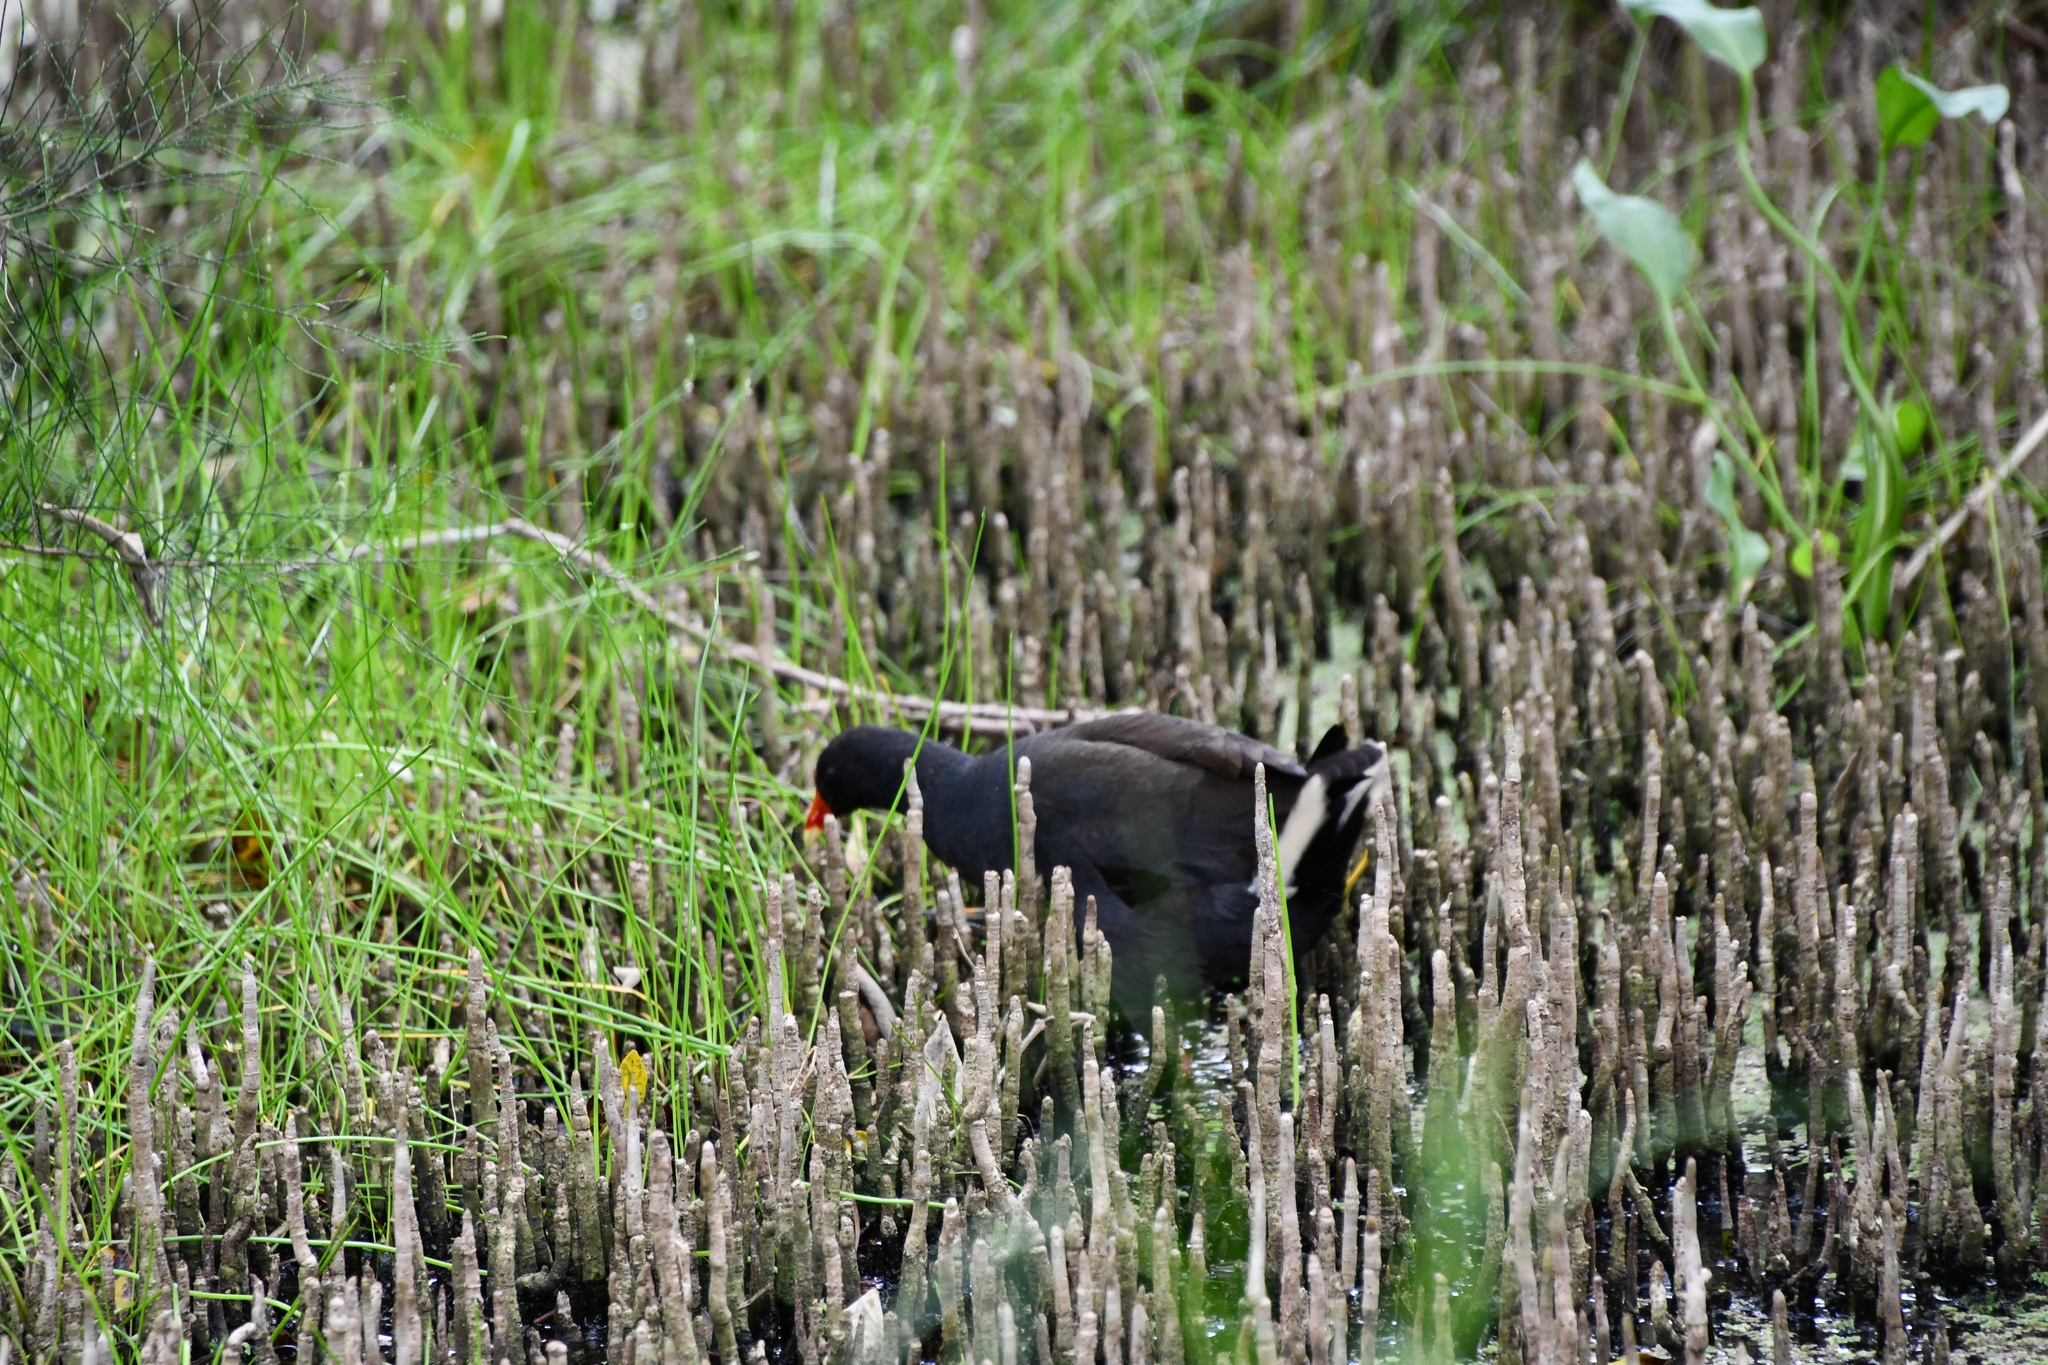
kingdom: Animalia
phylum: Chordata
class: Aves
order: Gruiformes
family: Rallidae
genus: Gallinula
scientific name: Gallinula tenebrosa
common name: Dusky moorhen
